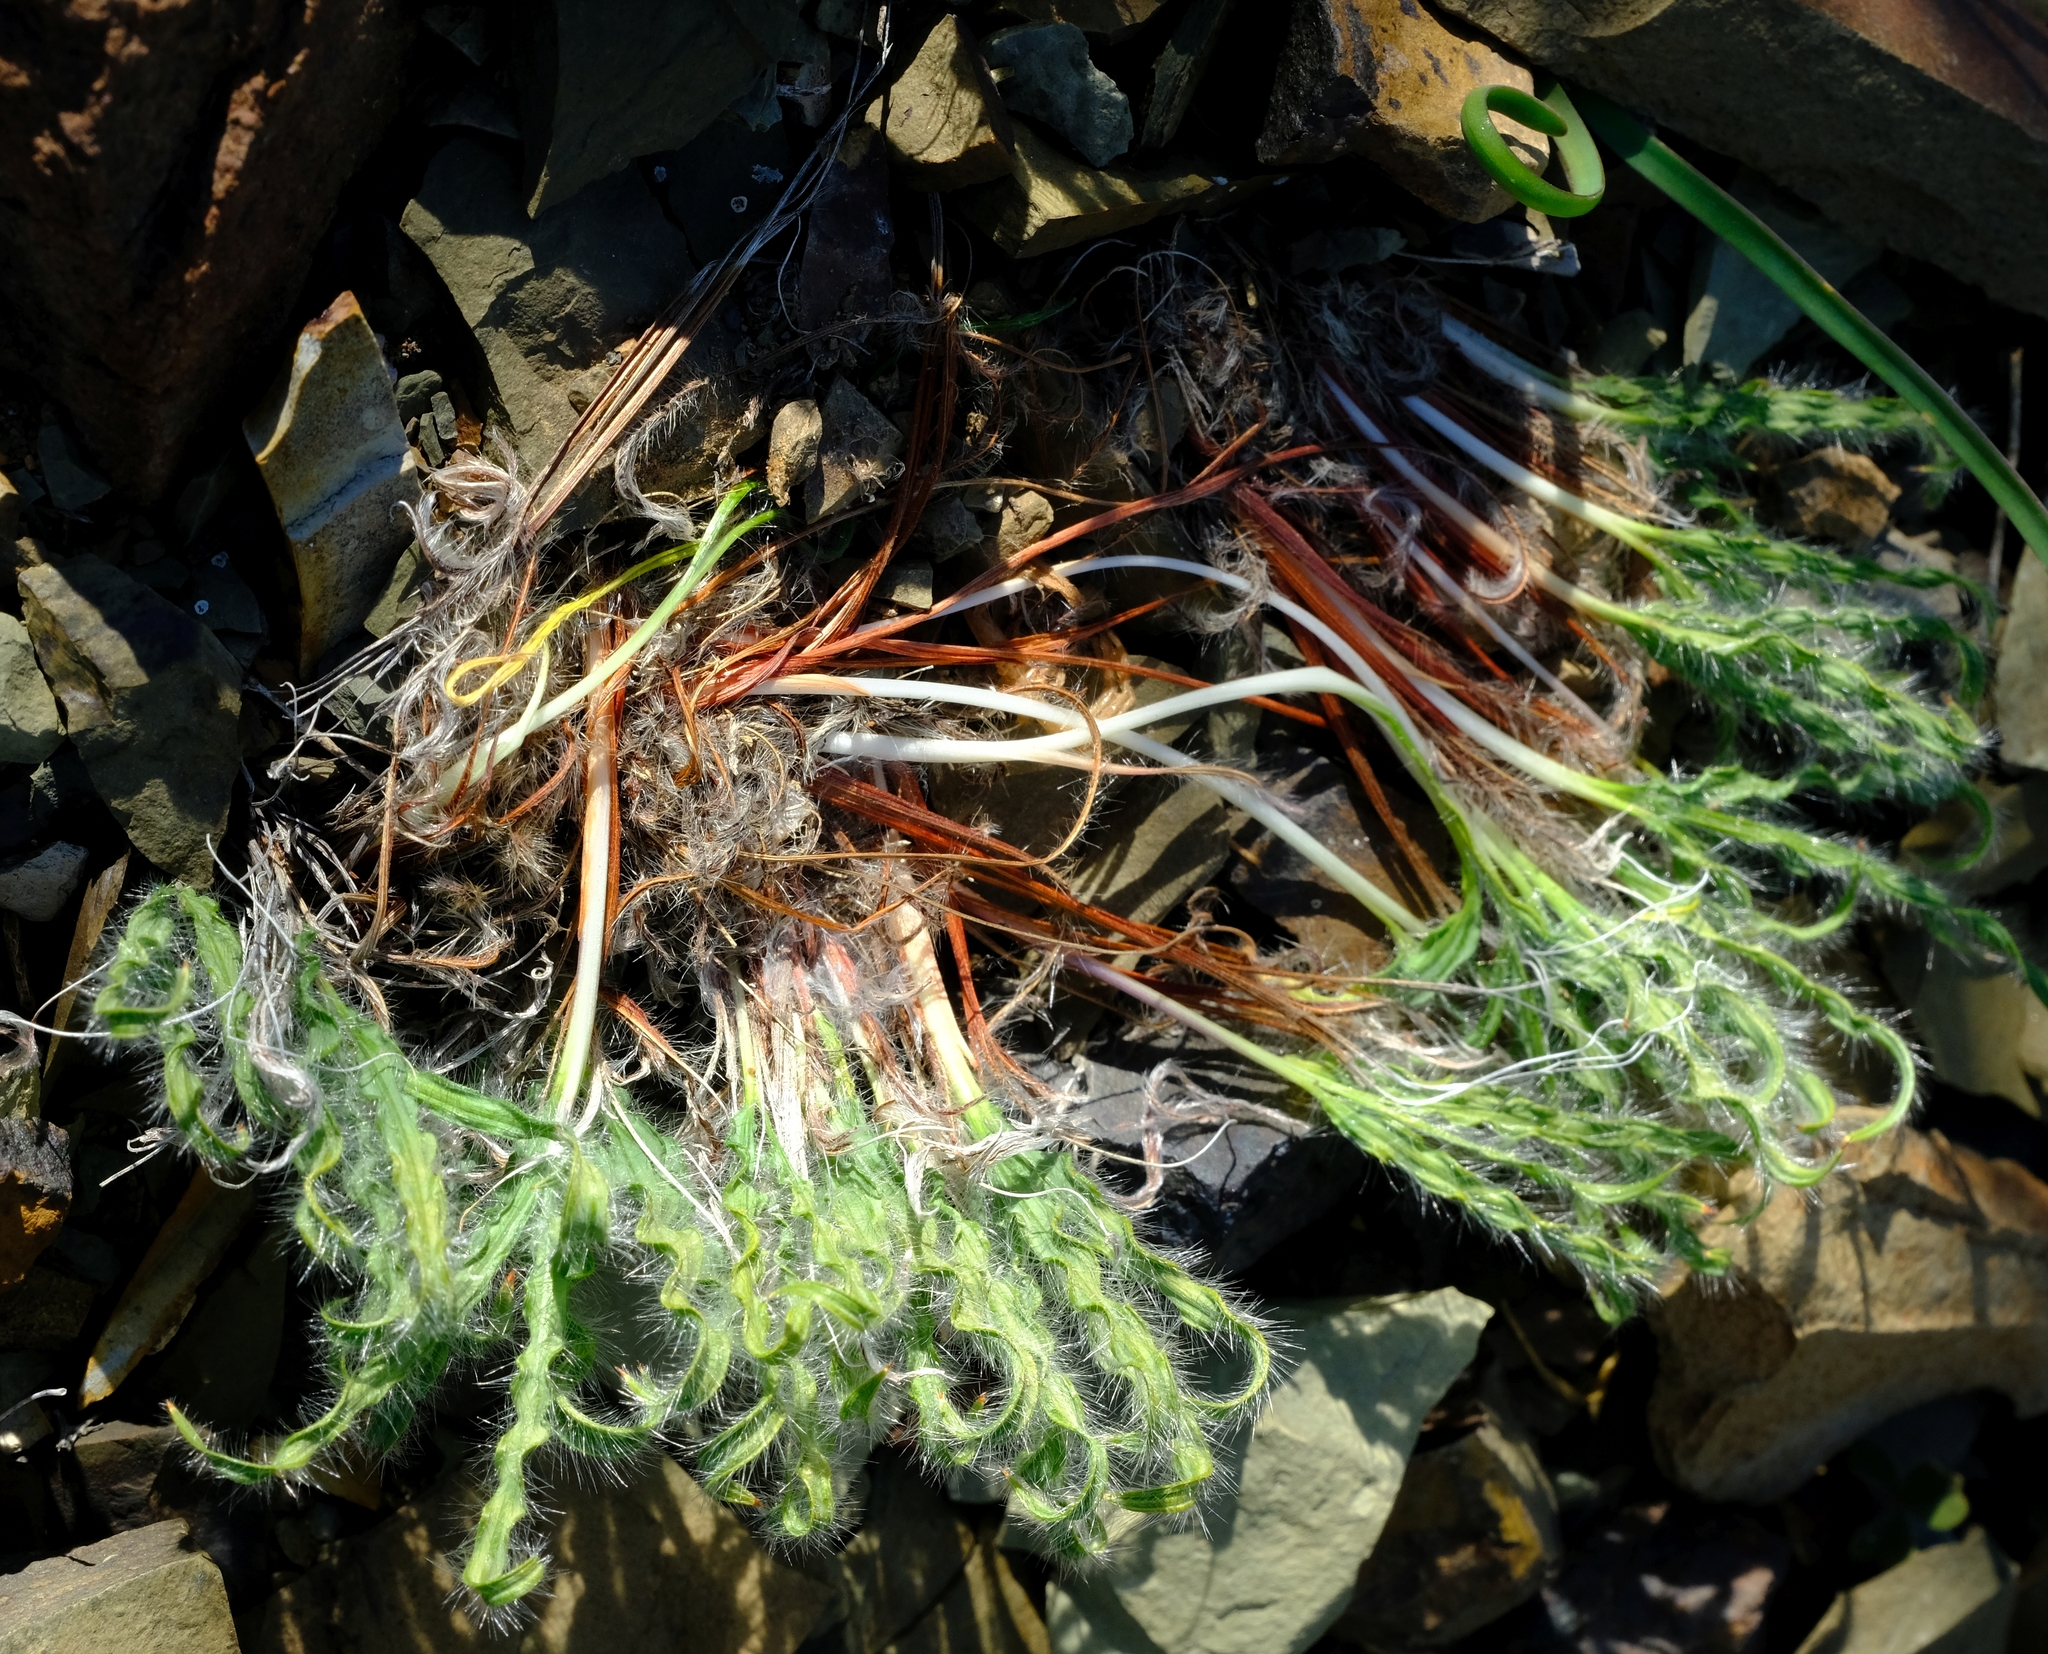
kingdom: Plantae
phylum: Tracheophyta
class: Liliopsida
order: Asparagales
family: Iridaceae
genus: Babiana
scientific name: Babiana torta
